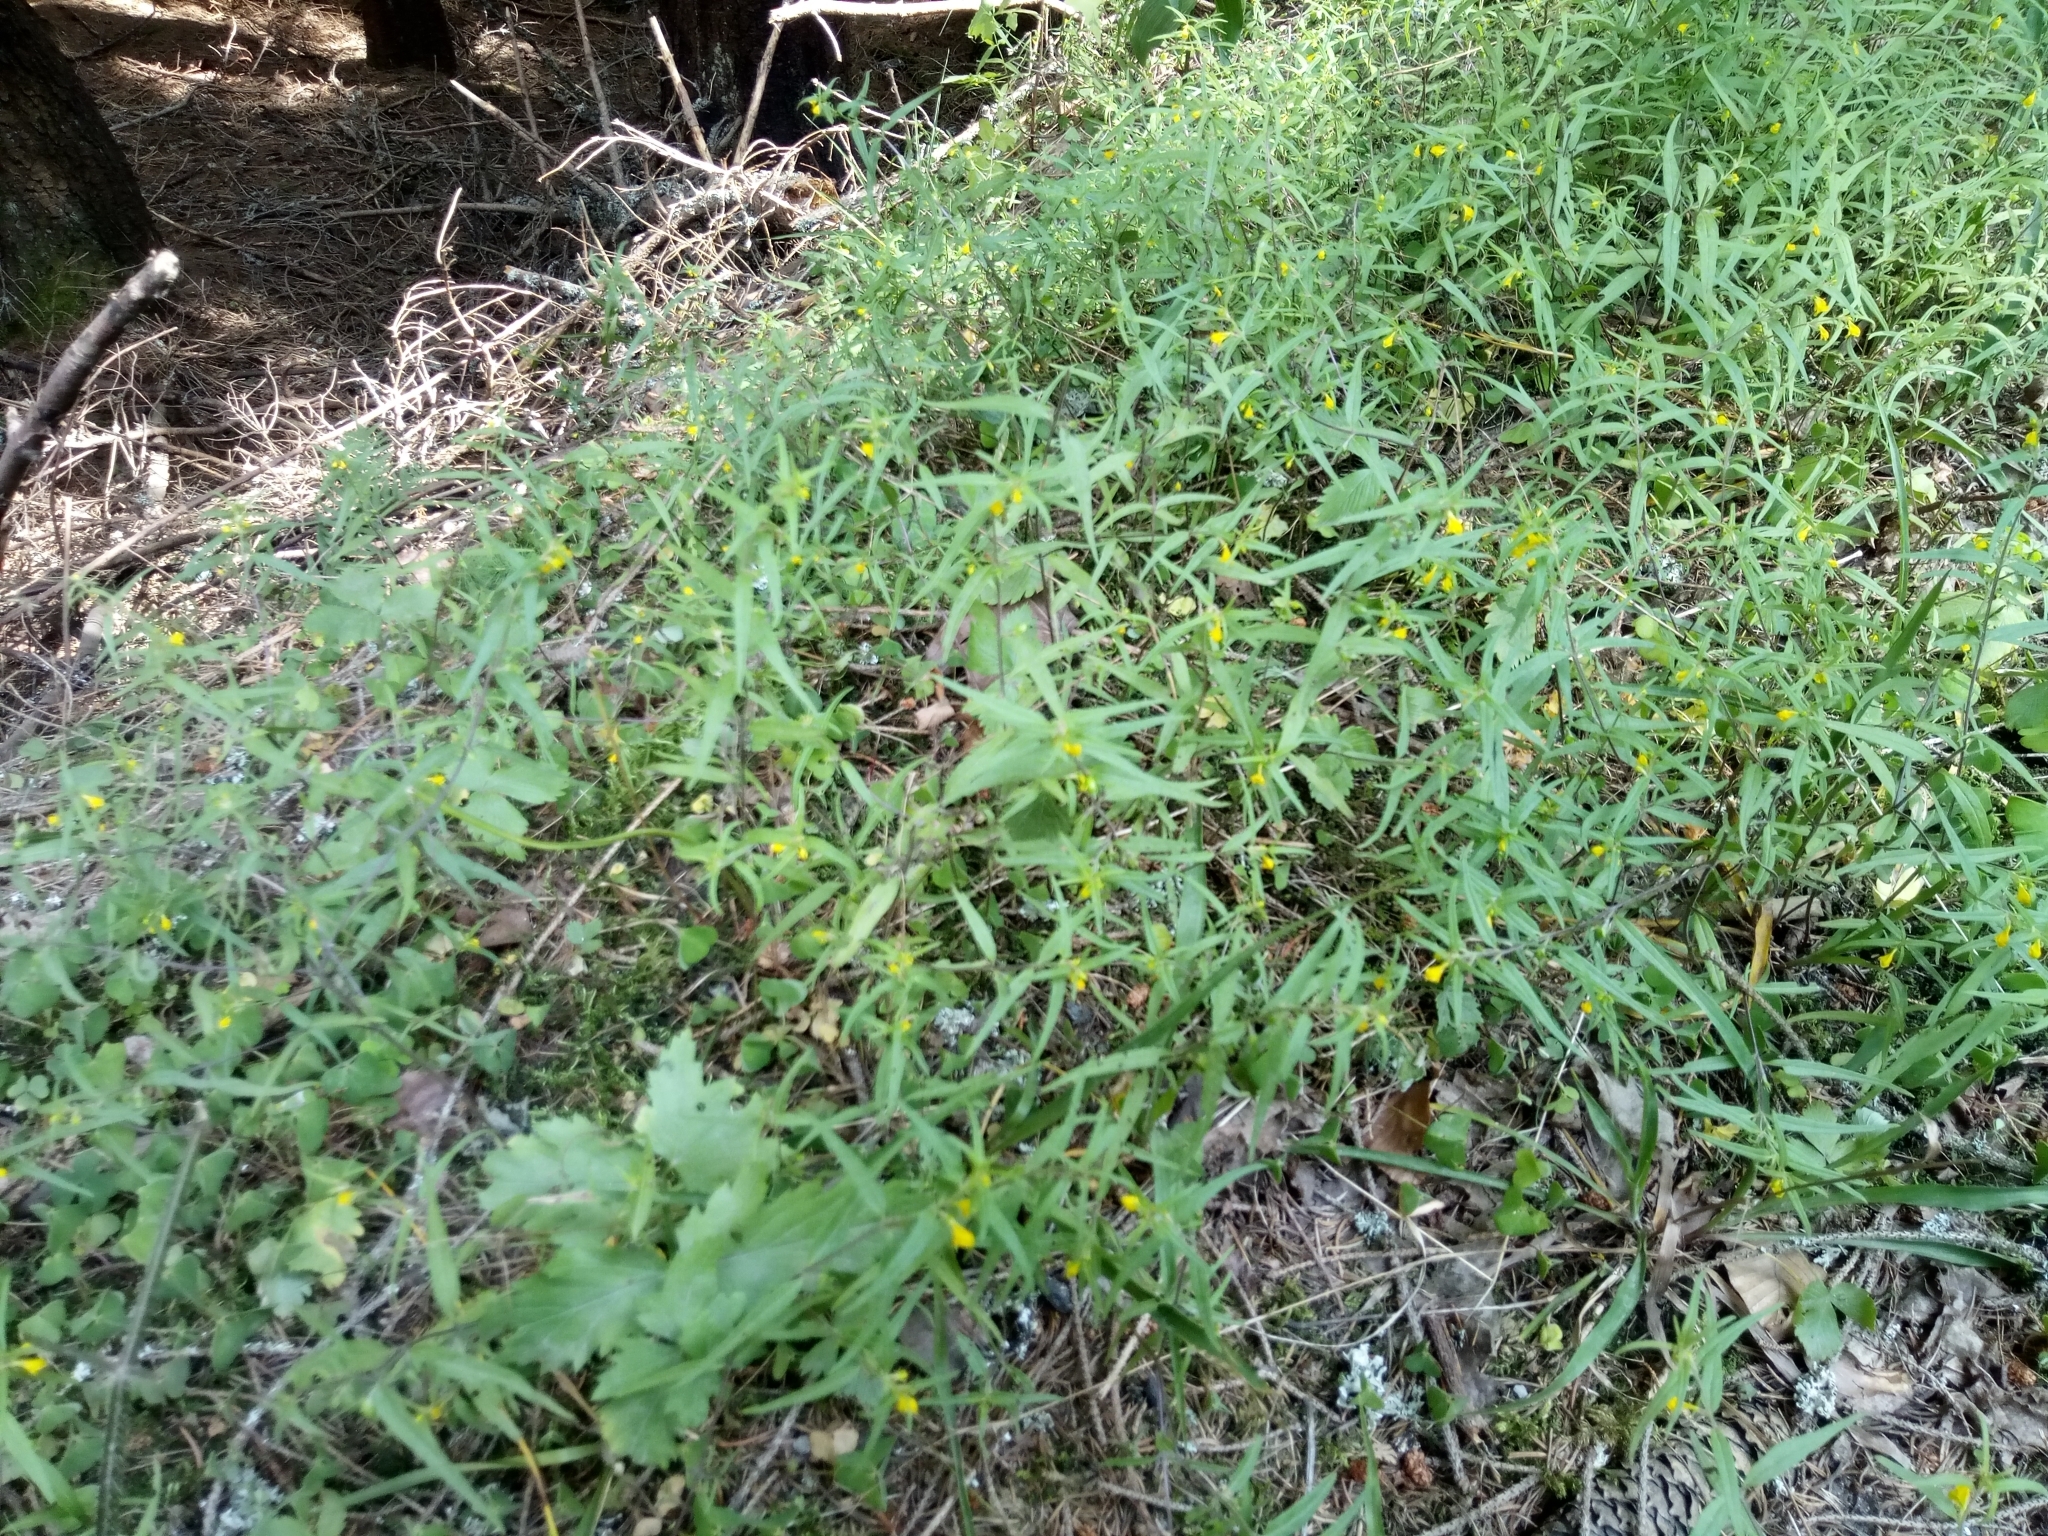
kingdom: Plantae
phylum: Tracheophyta
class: Magnoliopsida
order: Lamiales
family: Orobanchaceae
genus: Melampyrum
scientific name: Melampyrum sylvaticum
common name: Small cow-wheat
